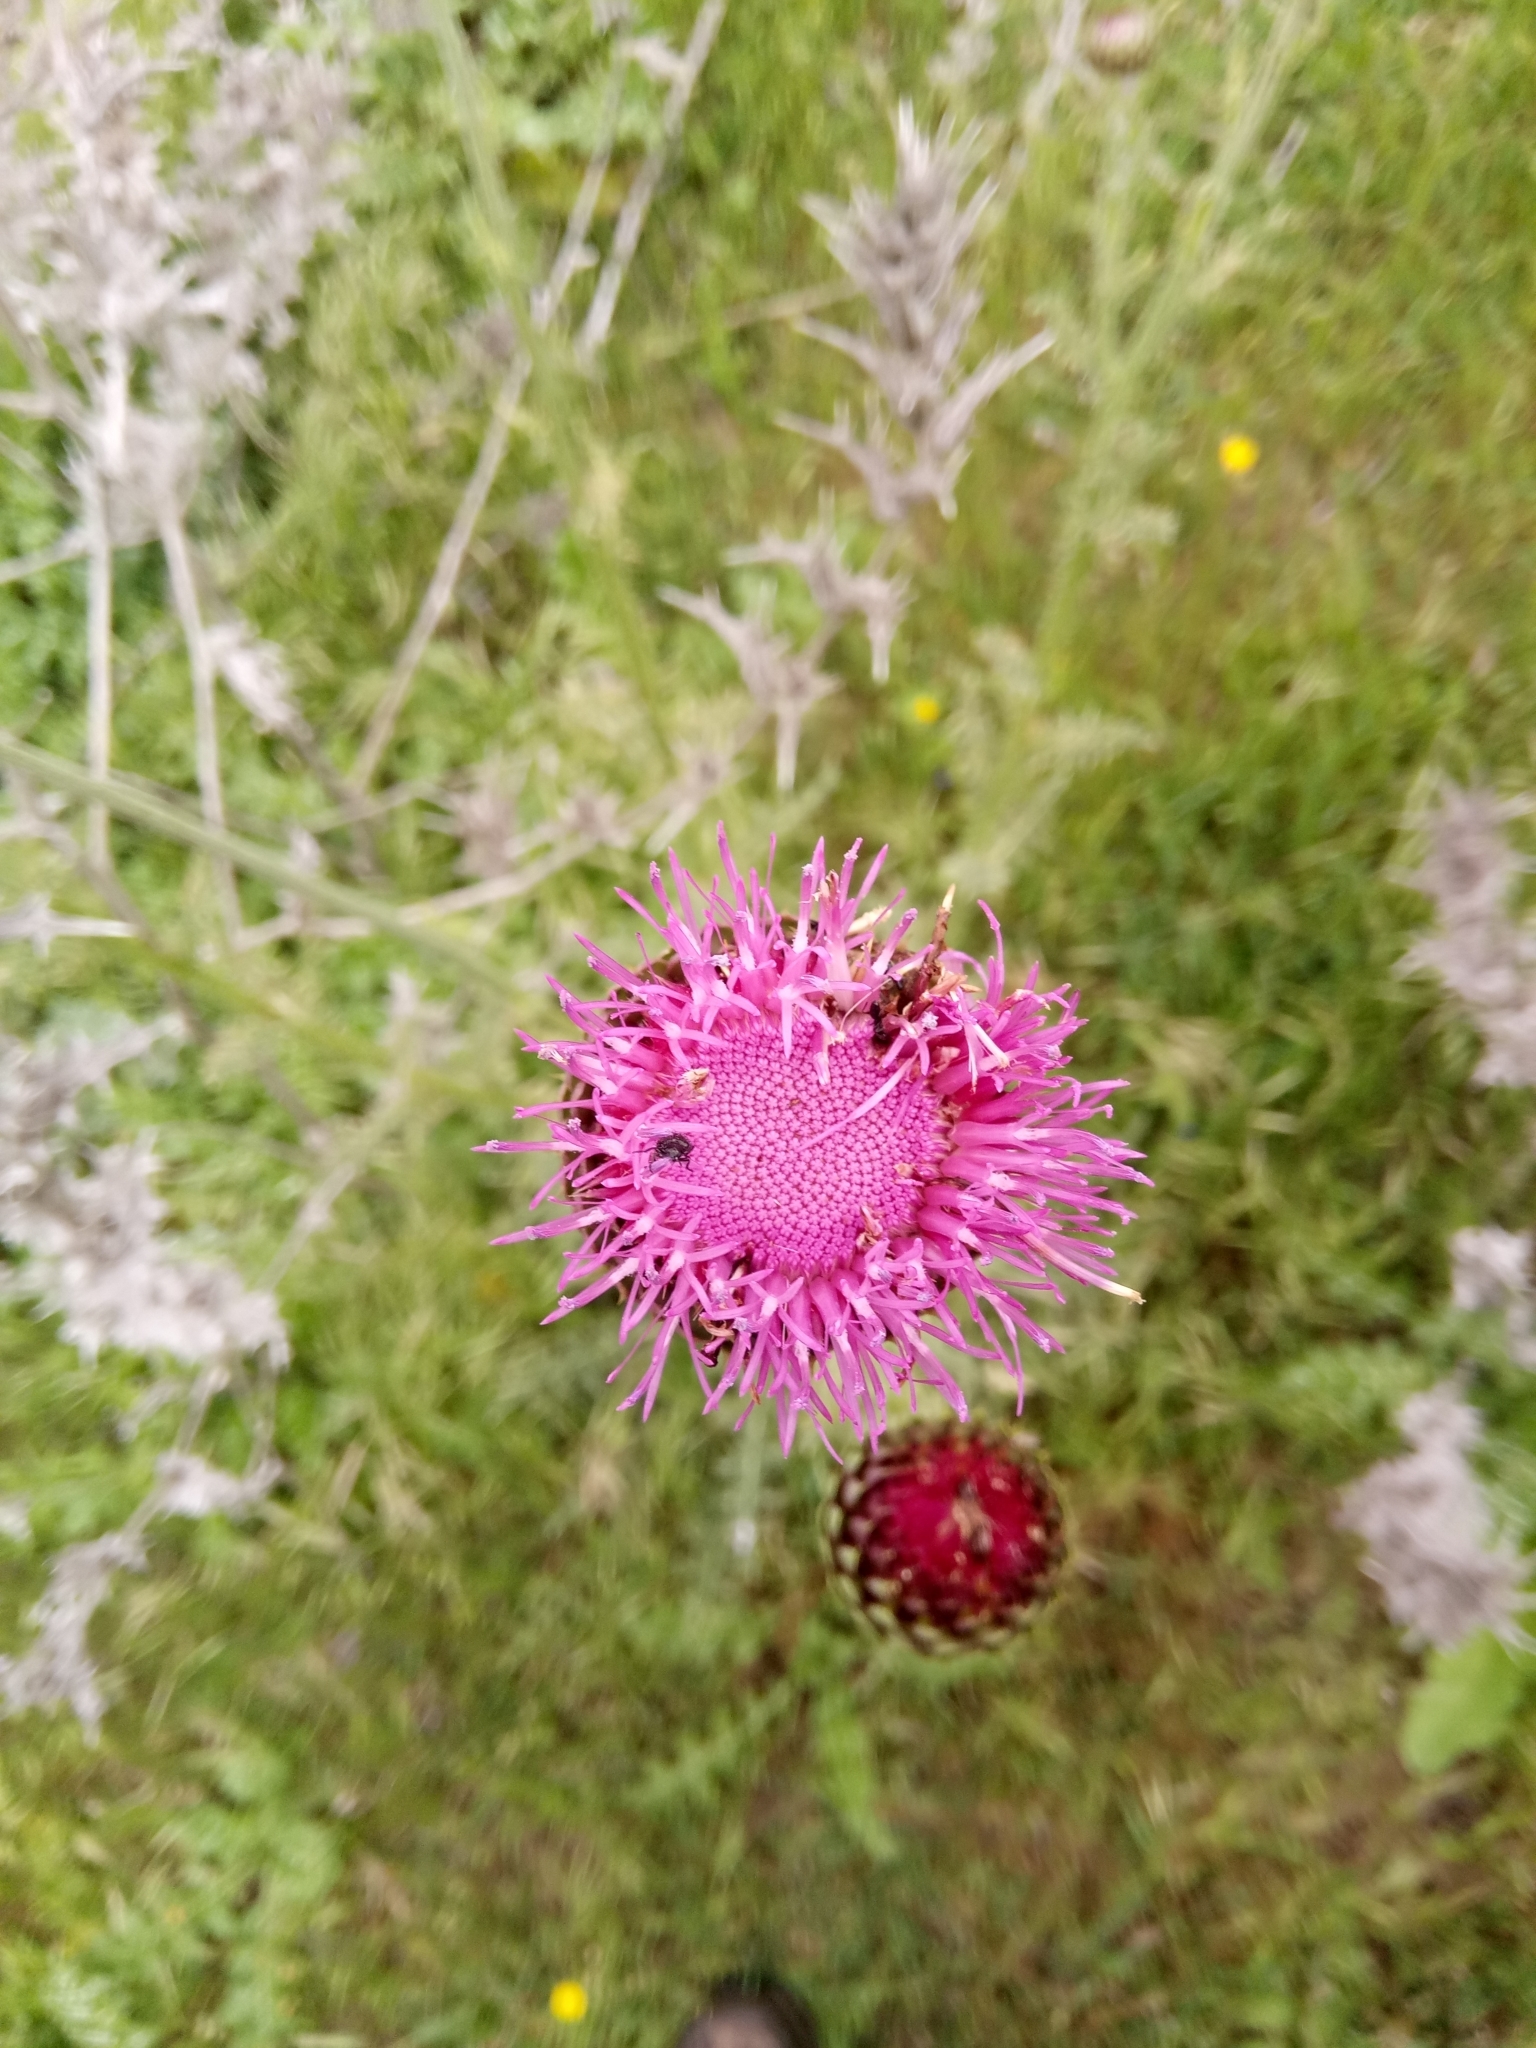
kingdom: Plantae
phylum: Tracheophyta
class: Magnoliopsida
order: Asterales
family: Asteraceae
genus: Carduus
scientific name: Carduus numidicus
